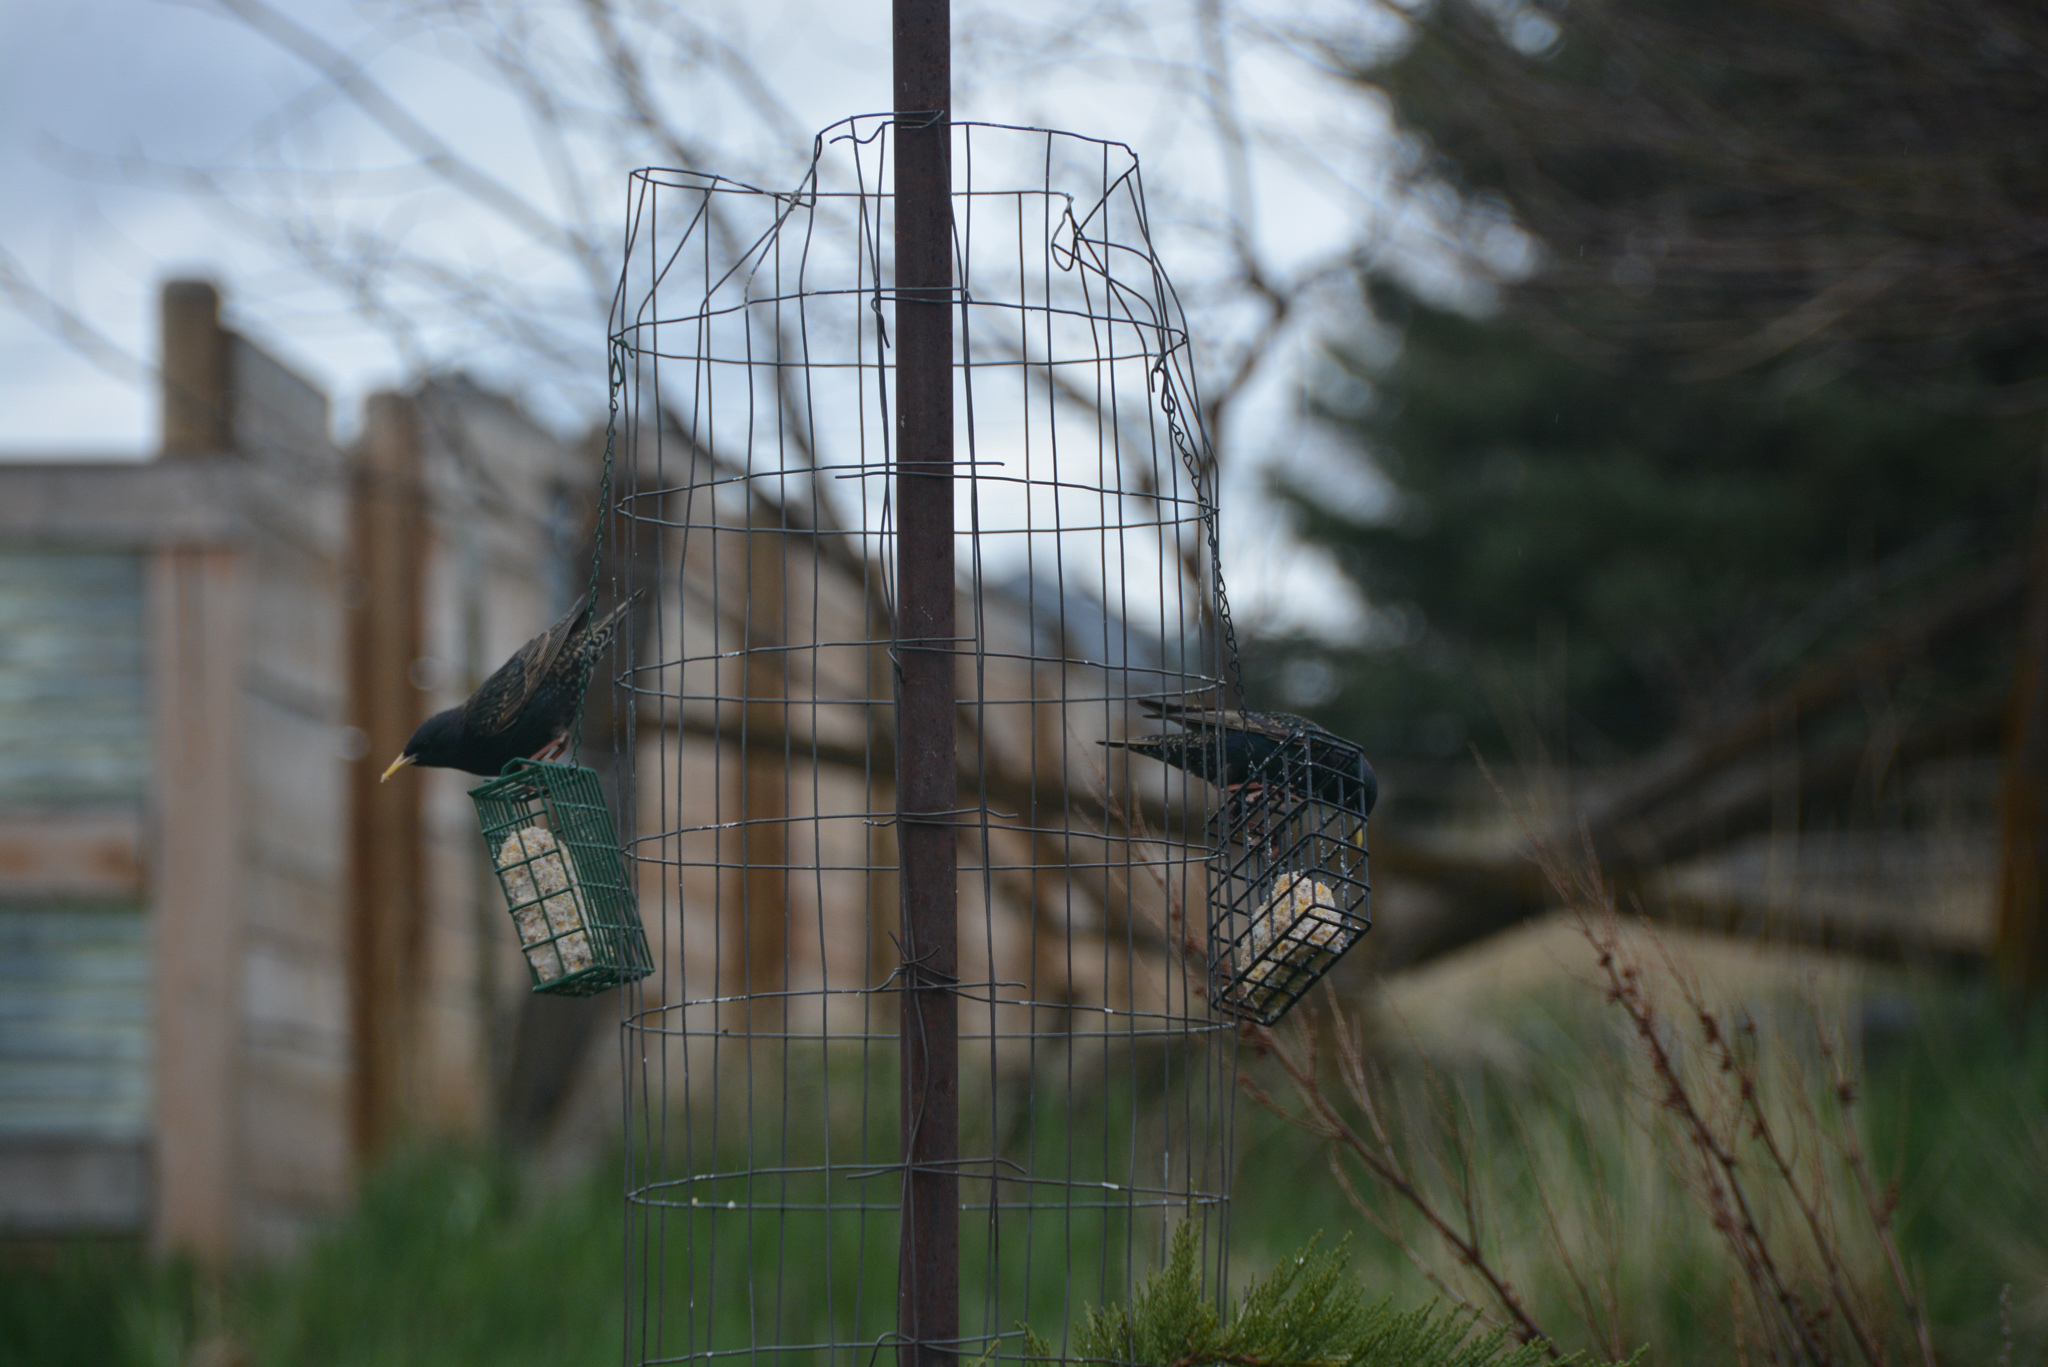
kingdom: Animalia
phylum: Chordata
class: Aves
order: Passeriformes
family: Sturnidae
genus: Sturnus
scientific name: Sturnus vulgaris
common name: Common starling
